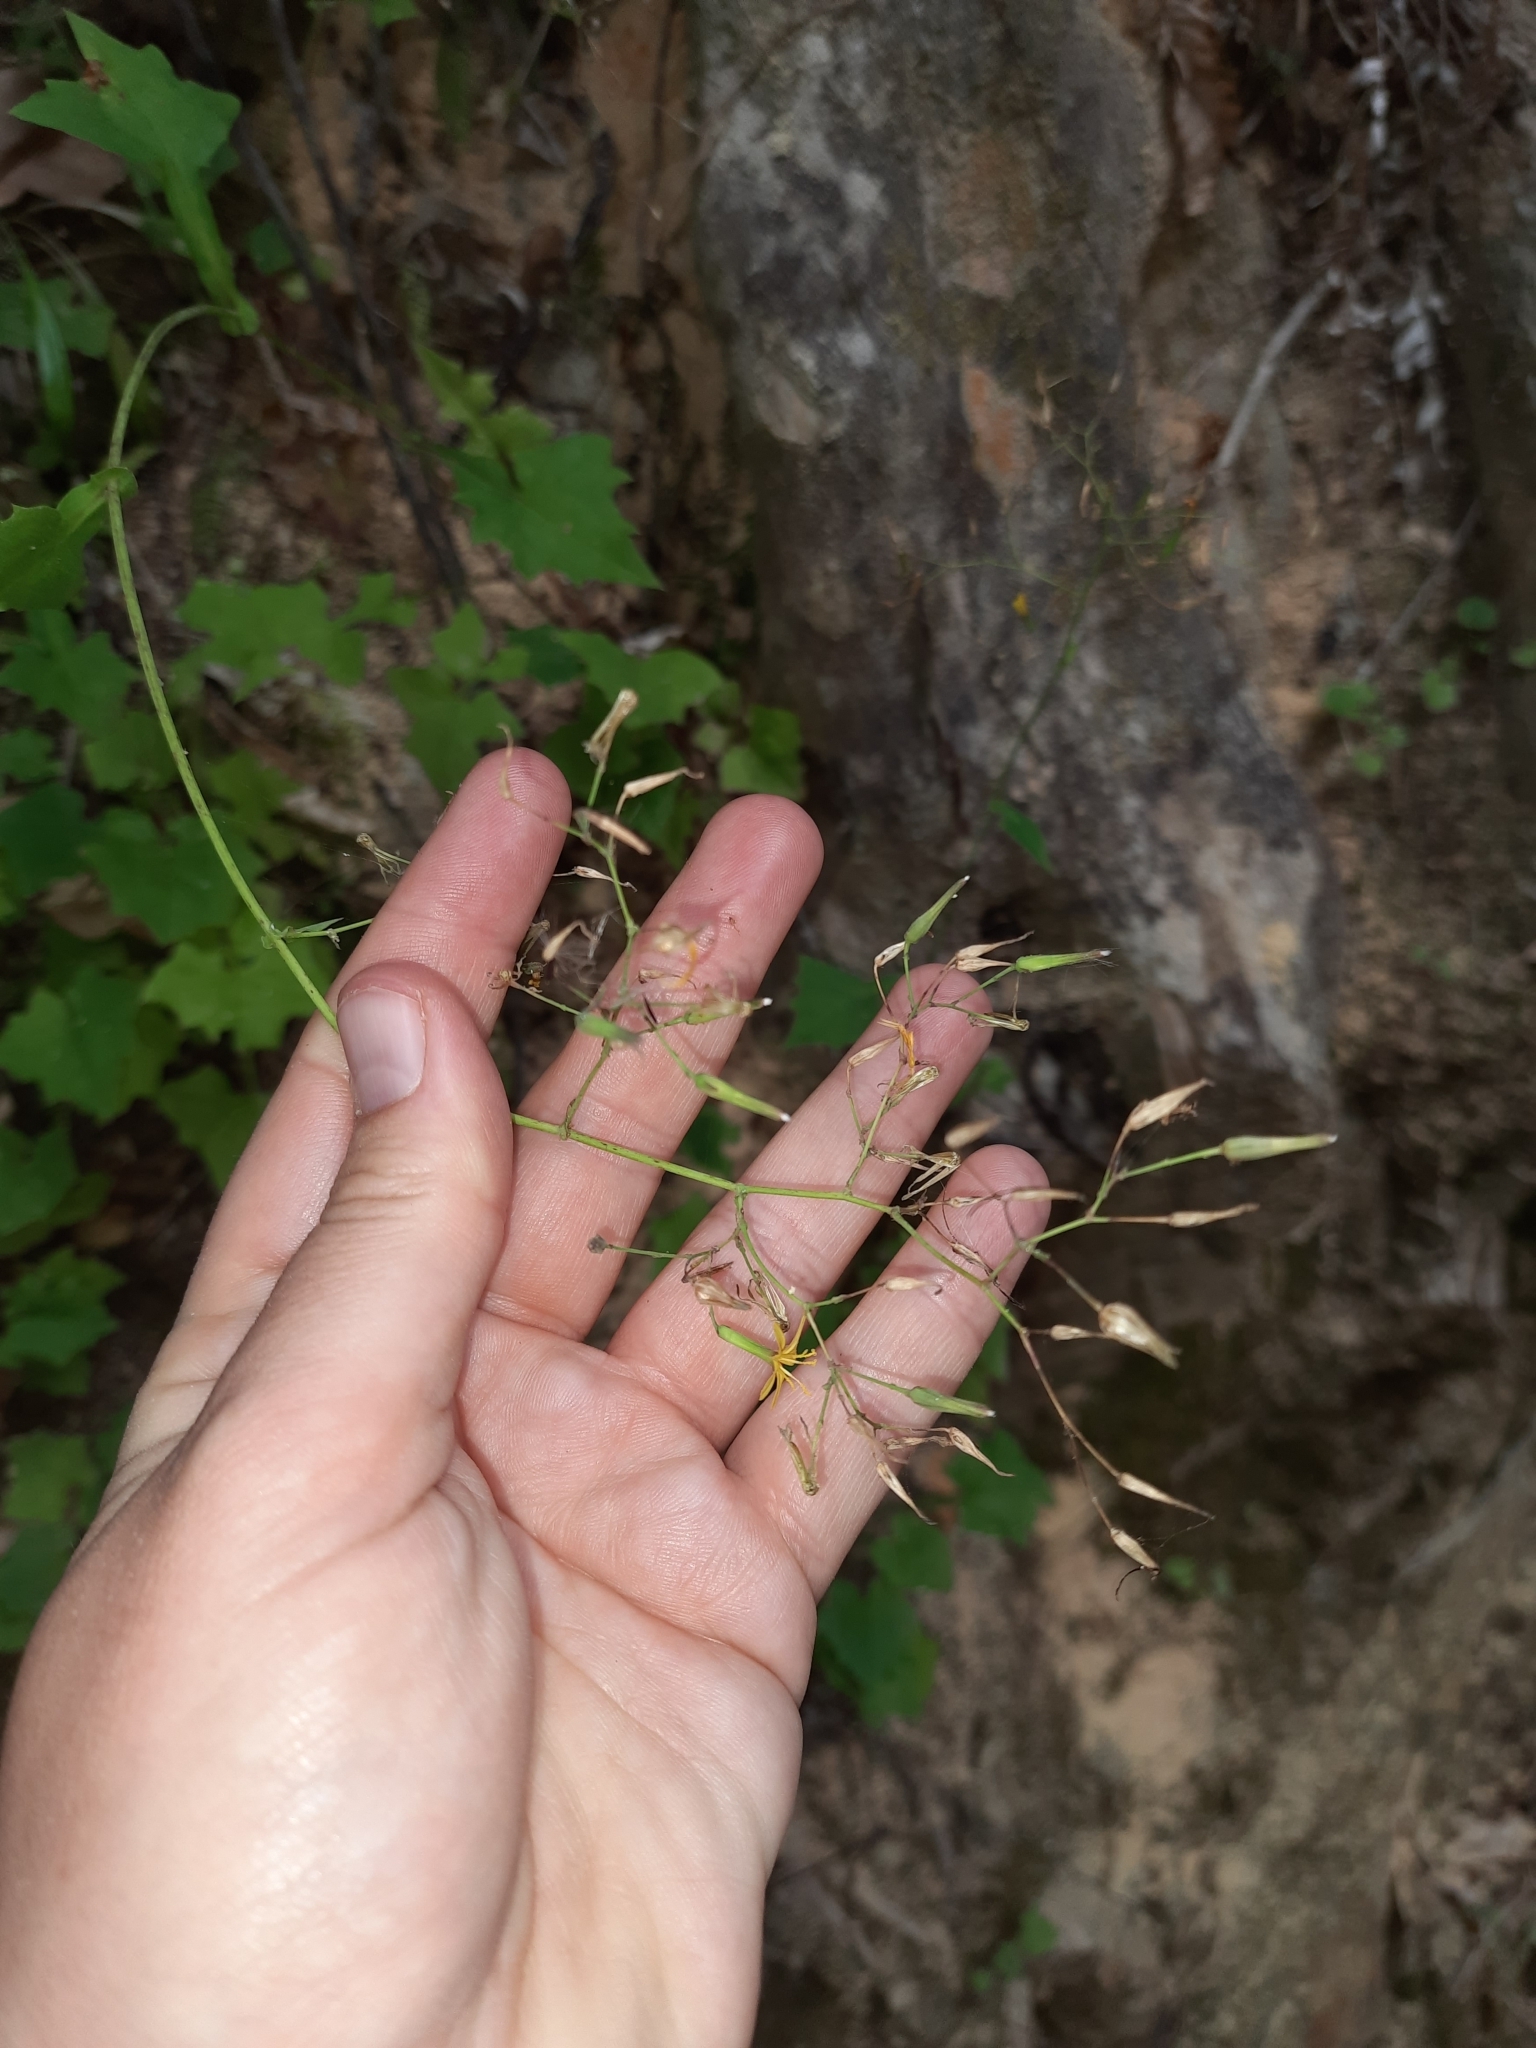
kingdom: Plantae
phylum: Tracheophyta
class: Magnoliopsida
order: Asterales
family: Asteraceae
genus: Mycelis
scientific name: Mycelis muralis
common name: Wall lettuce
